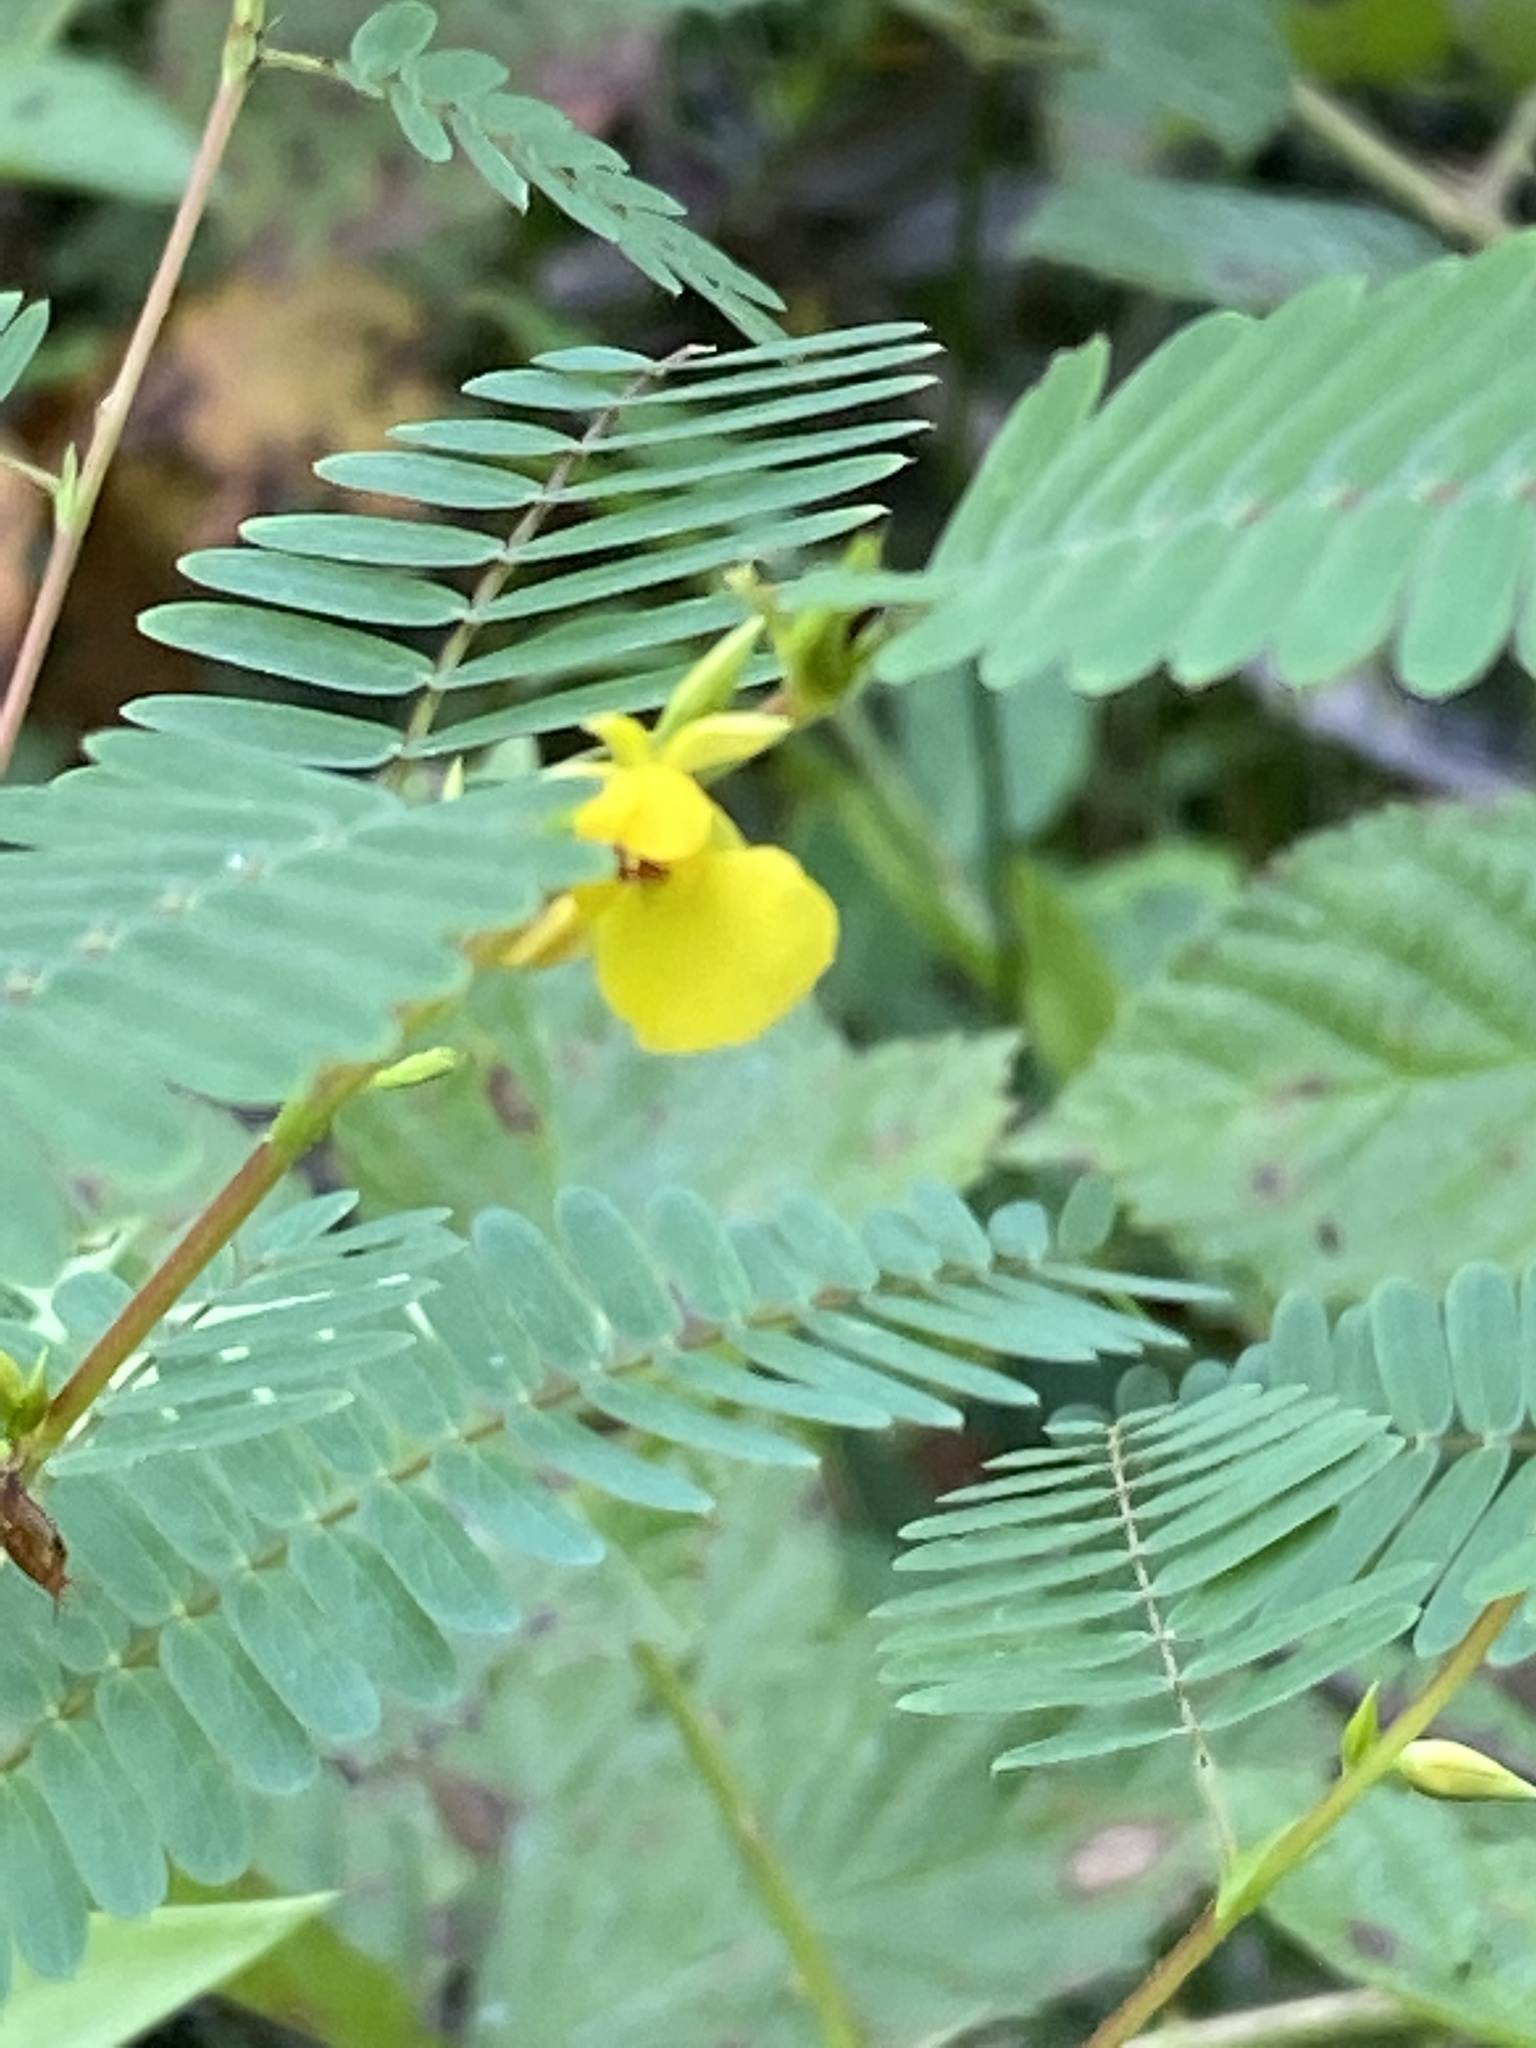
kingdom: Plantae
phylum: Tracheophyta
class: Magnoliopsida
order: Fabales
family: Fabaceae
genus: Chamaecrista
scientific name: Chamaecrista nictitans
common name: Sensitive cassia
